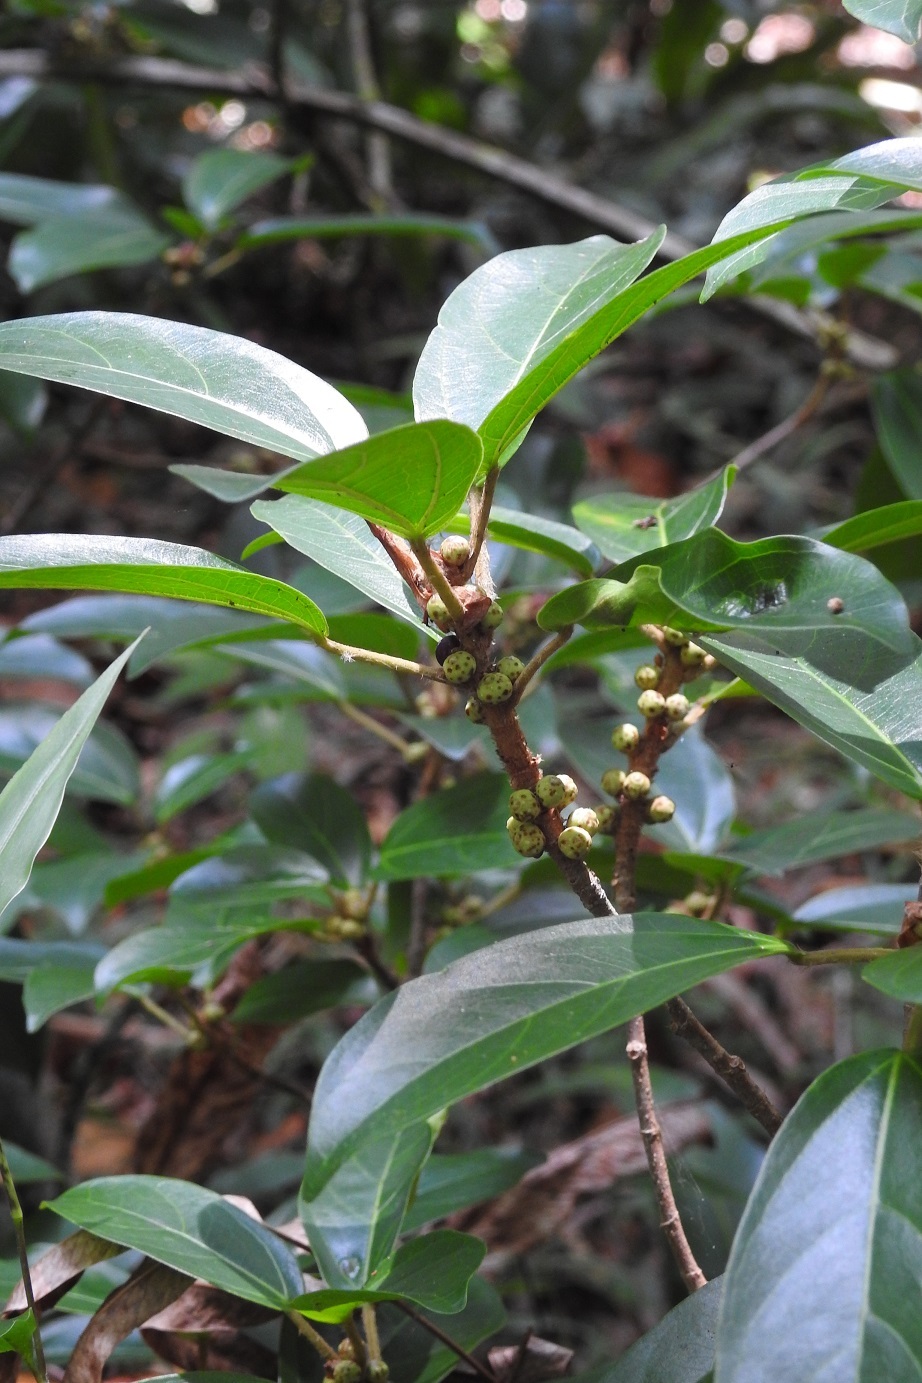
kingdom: Plantae
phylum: Tracheophyta
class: Magnoliopsida
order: Rosales
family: Moraceae
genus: Ficus
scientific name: Ficus colubrinae
